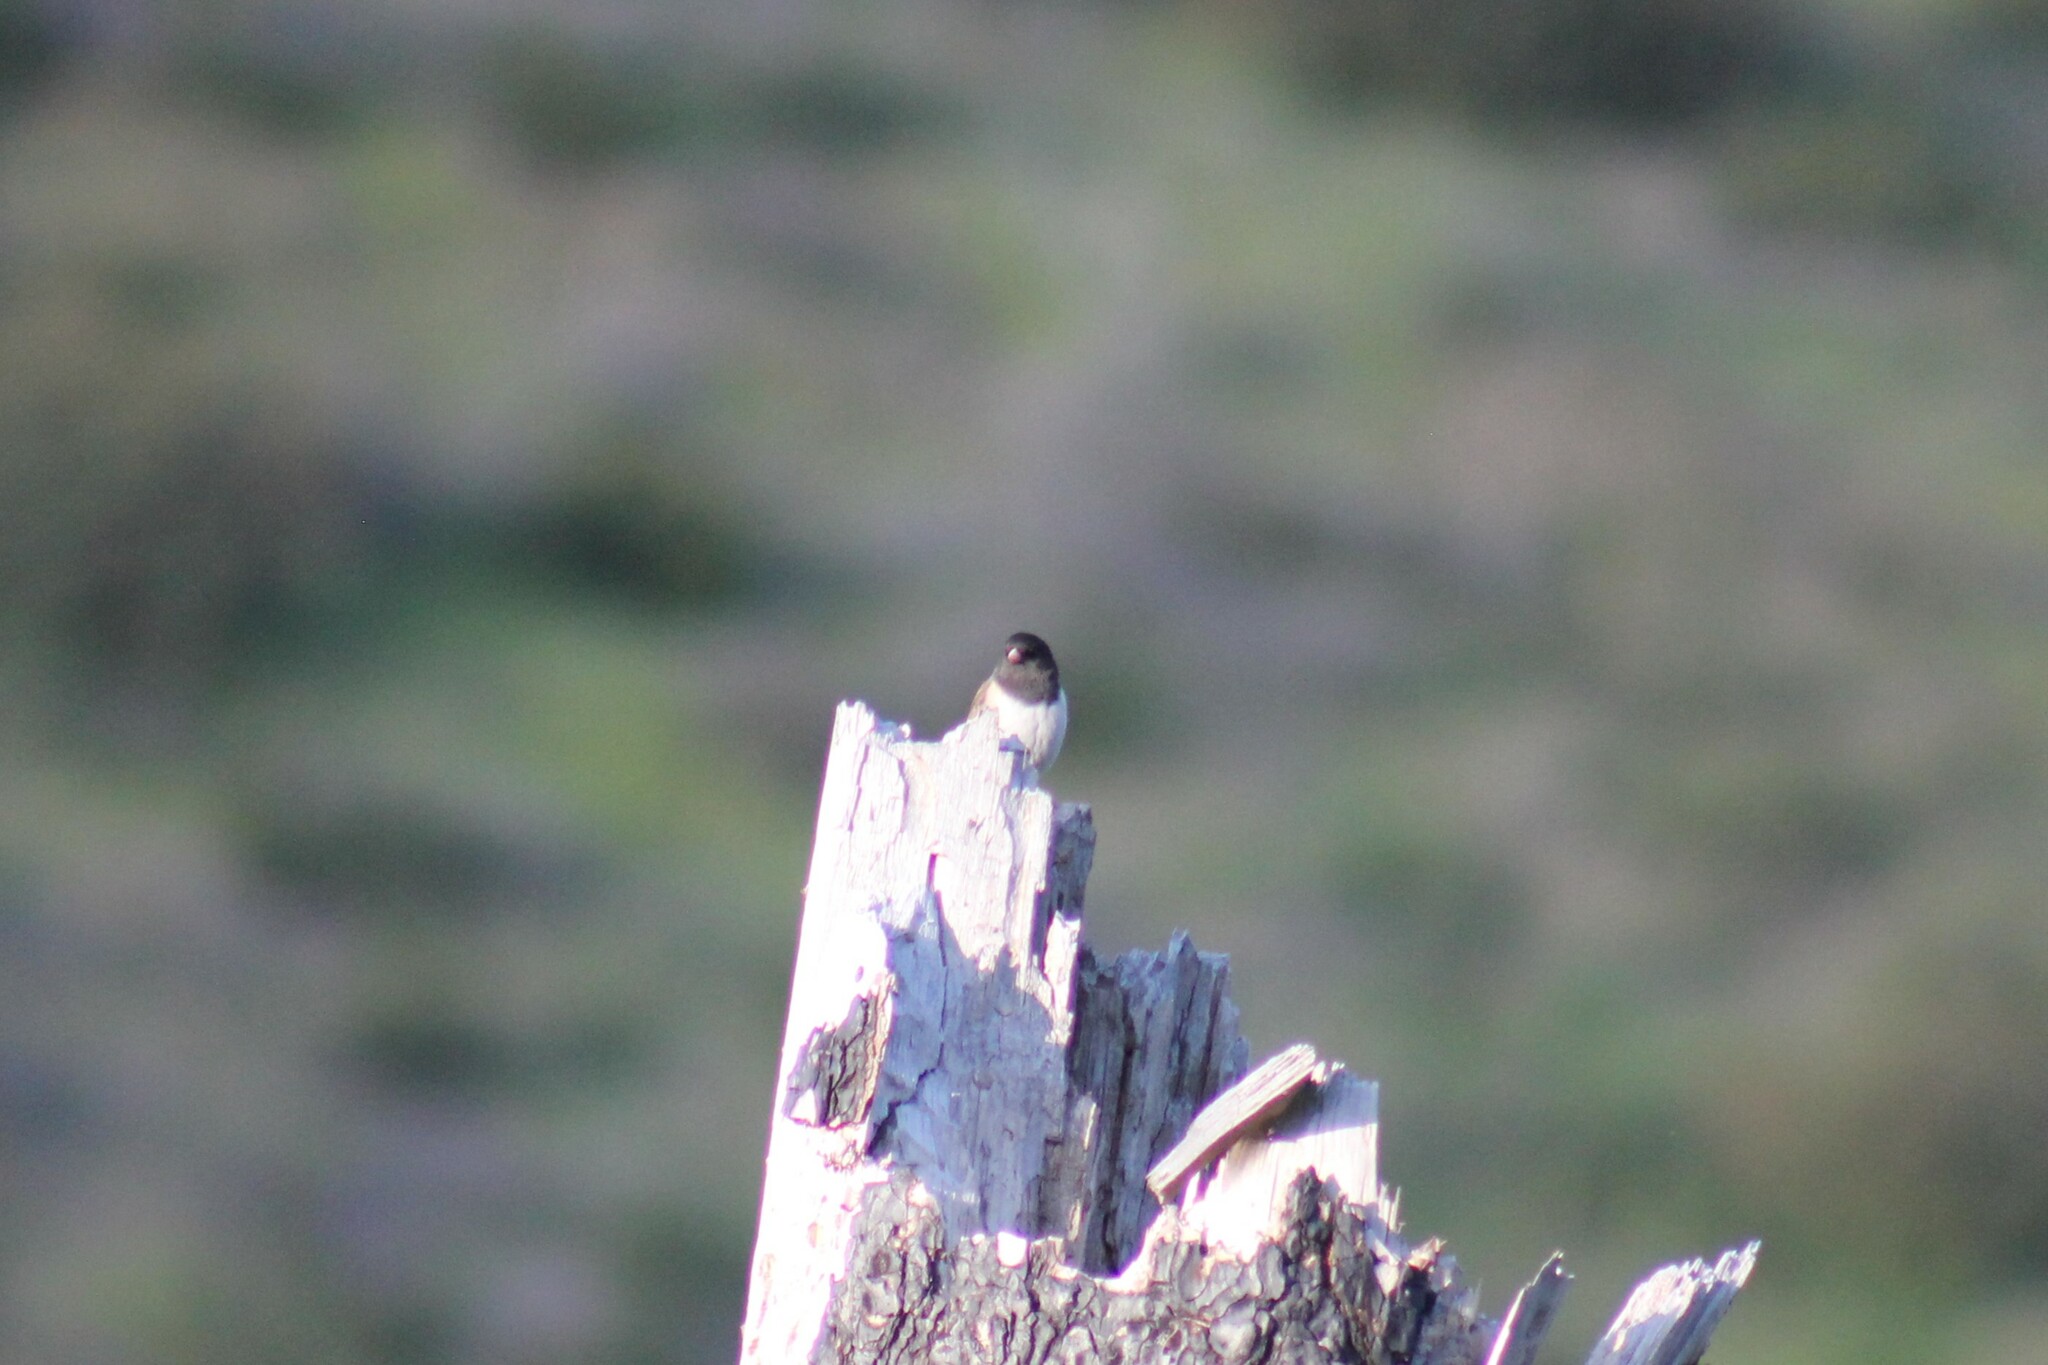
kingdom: Animalia
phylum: Chordata
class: Aves
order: Passeriformes
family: Passerellidae
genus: Junco
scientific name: Junco hyemalis
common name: Dark-eyed junco
